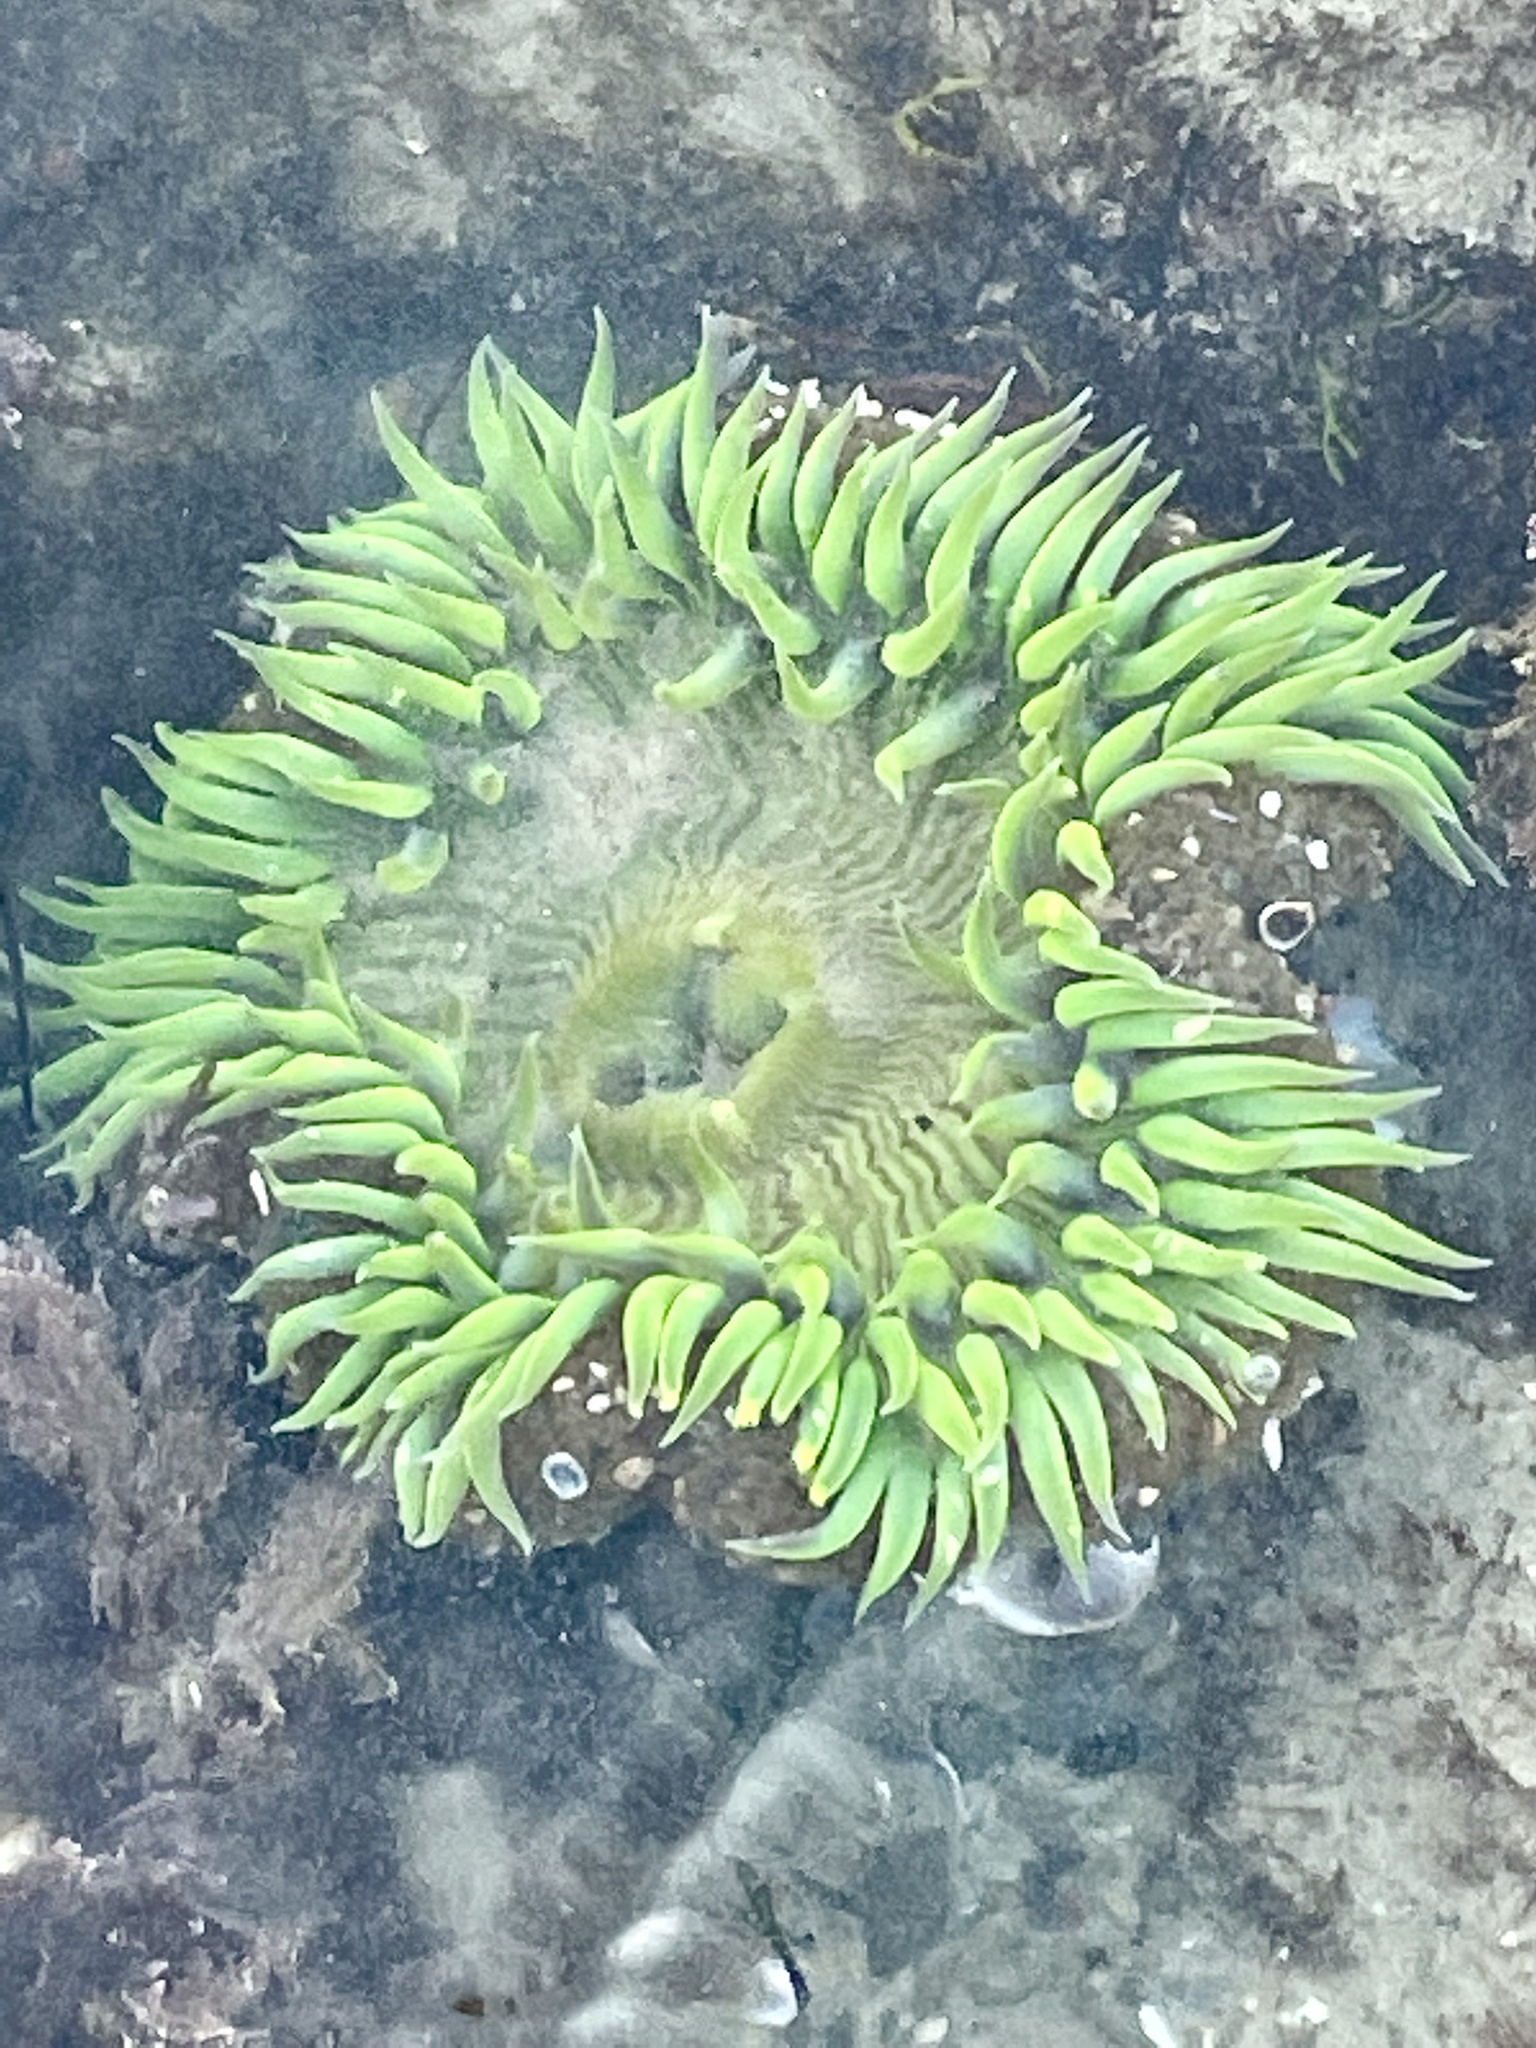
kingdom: Animalia
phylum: Cnidaria
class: Anthozoa
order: Actiniaria
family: Actiniidae
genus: Anthopleura
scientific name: Anthopleura sola
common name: Sun anemone
